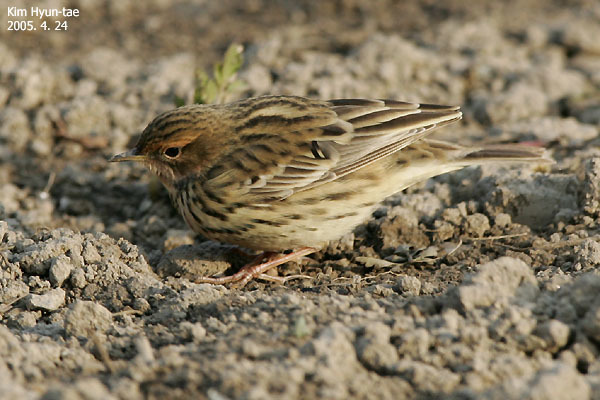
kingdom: Animalia
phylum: Chordata
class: Aves
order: Passeriformes
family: Motacillidae
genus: Anthus
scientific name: Anthus cervinus
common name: Red-throated pipit
